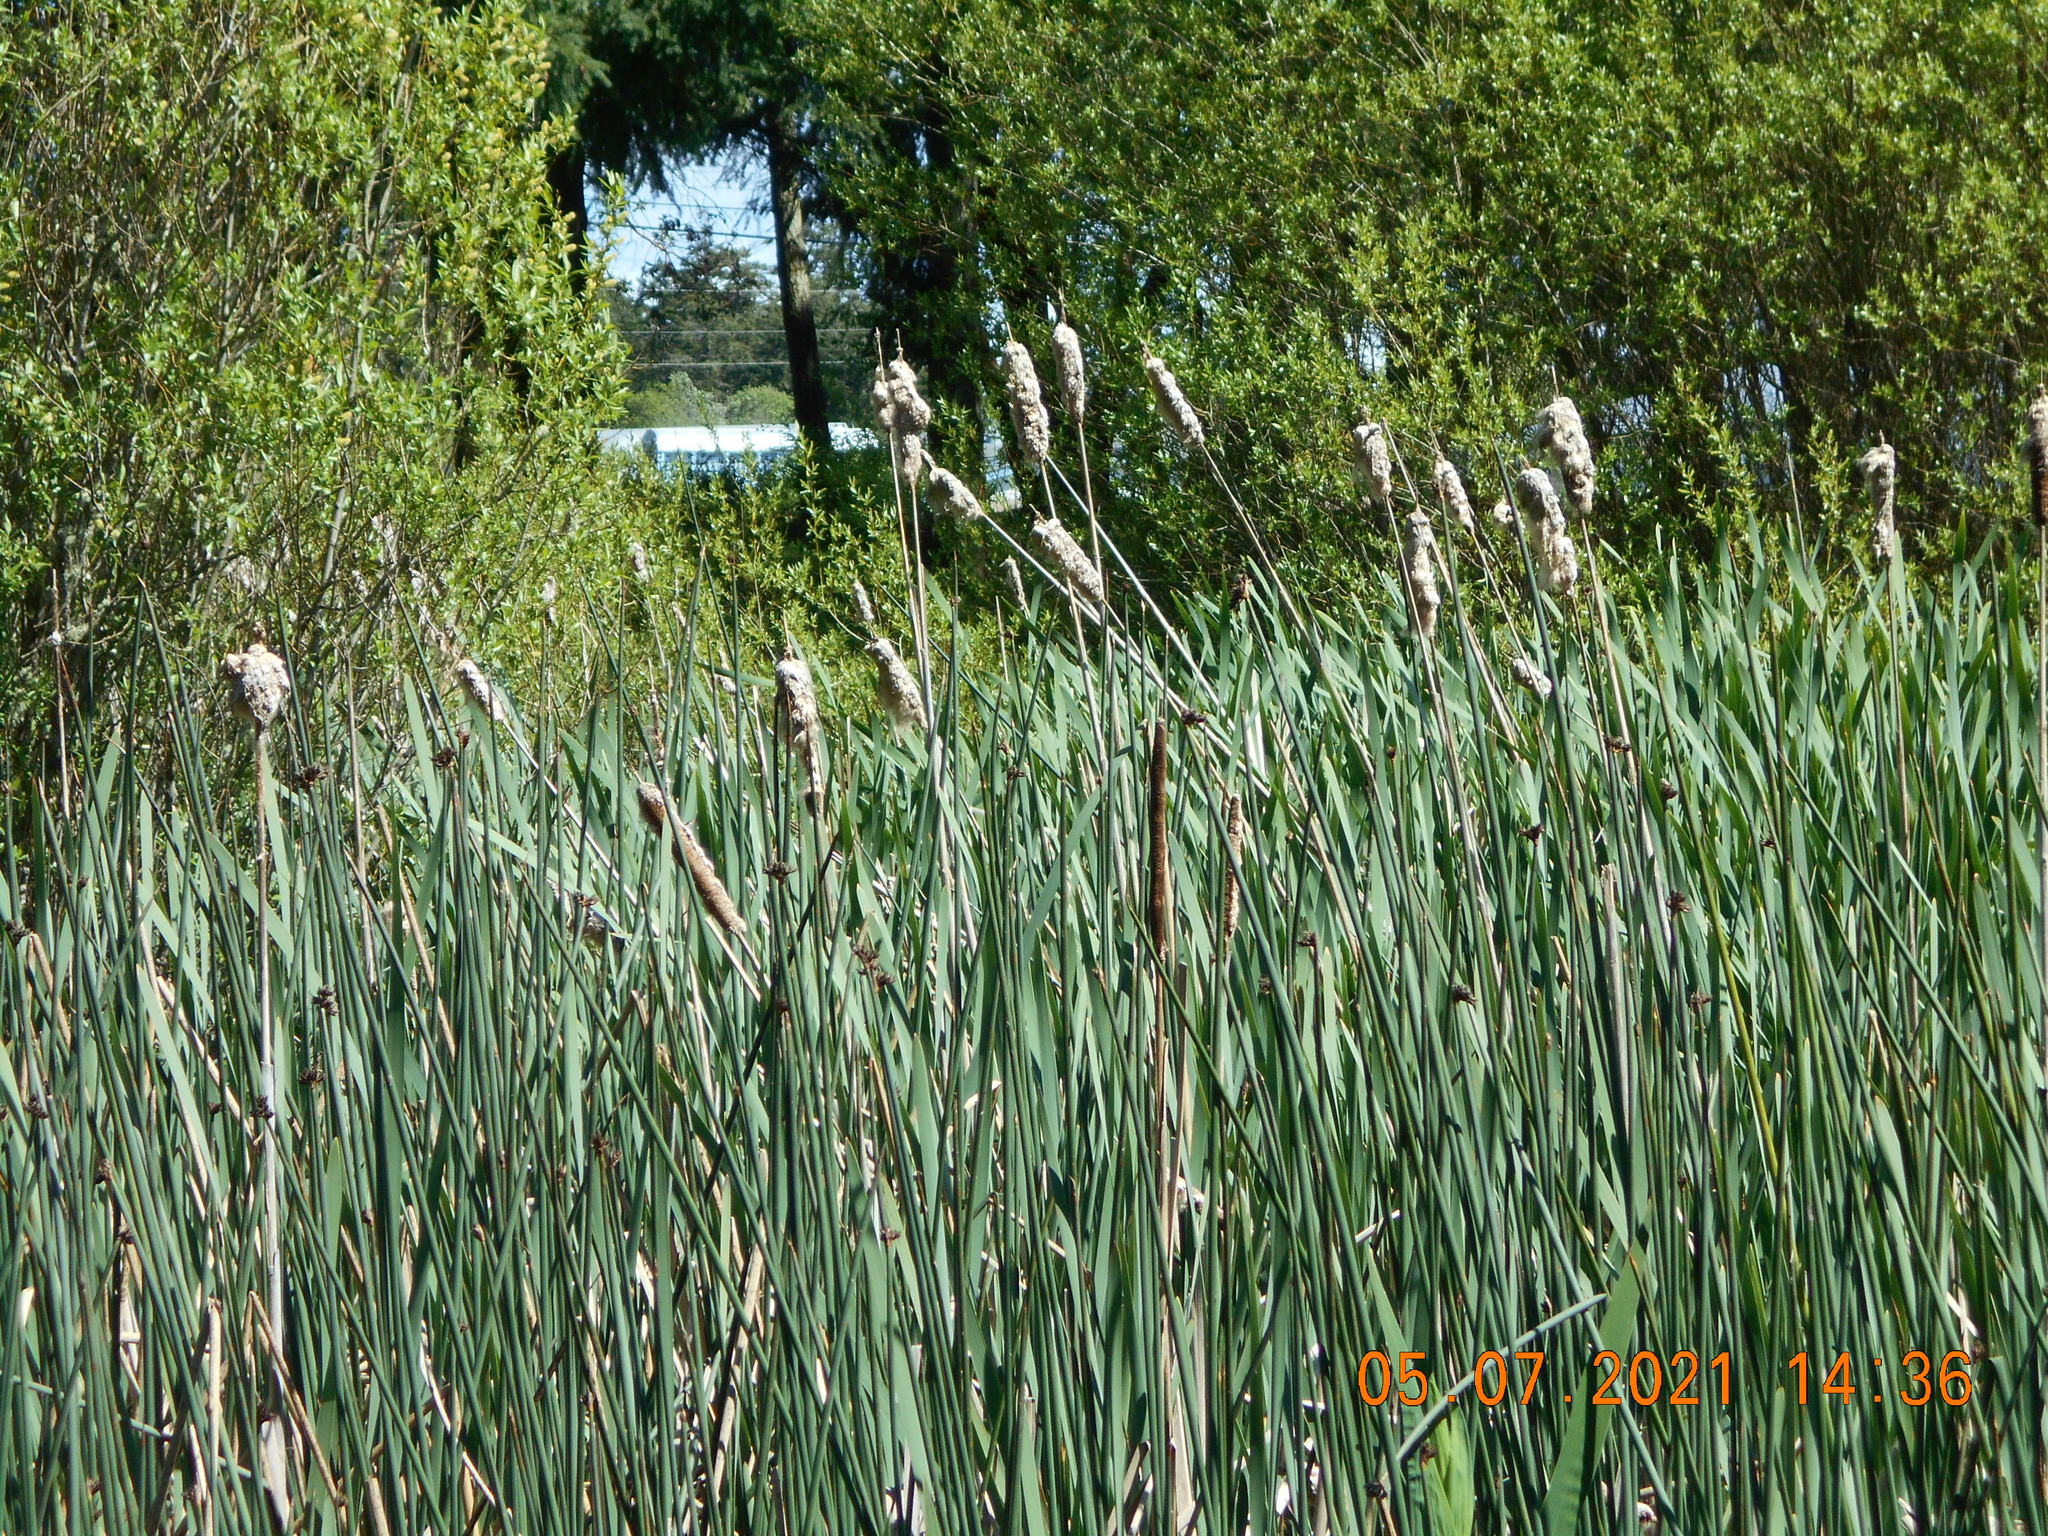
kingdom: Plantae
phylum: Tracheophyta
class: Liliopsida
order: Poales
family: Typhaceae
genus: Typha
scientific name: Typha latifolia
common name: Broadleaf cattail
